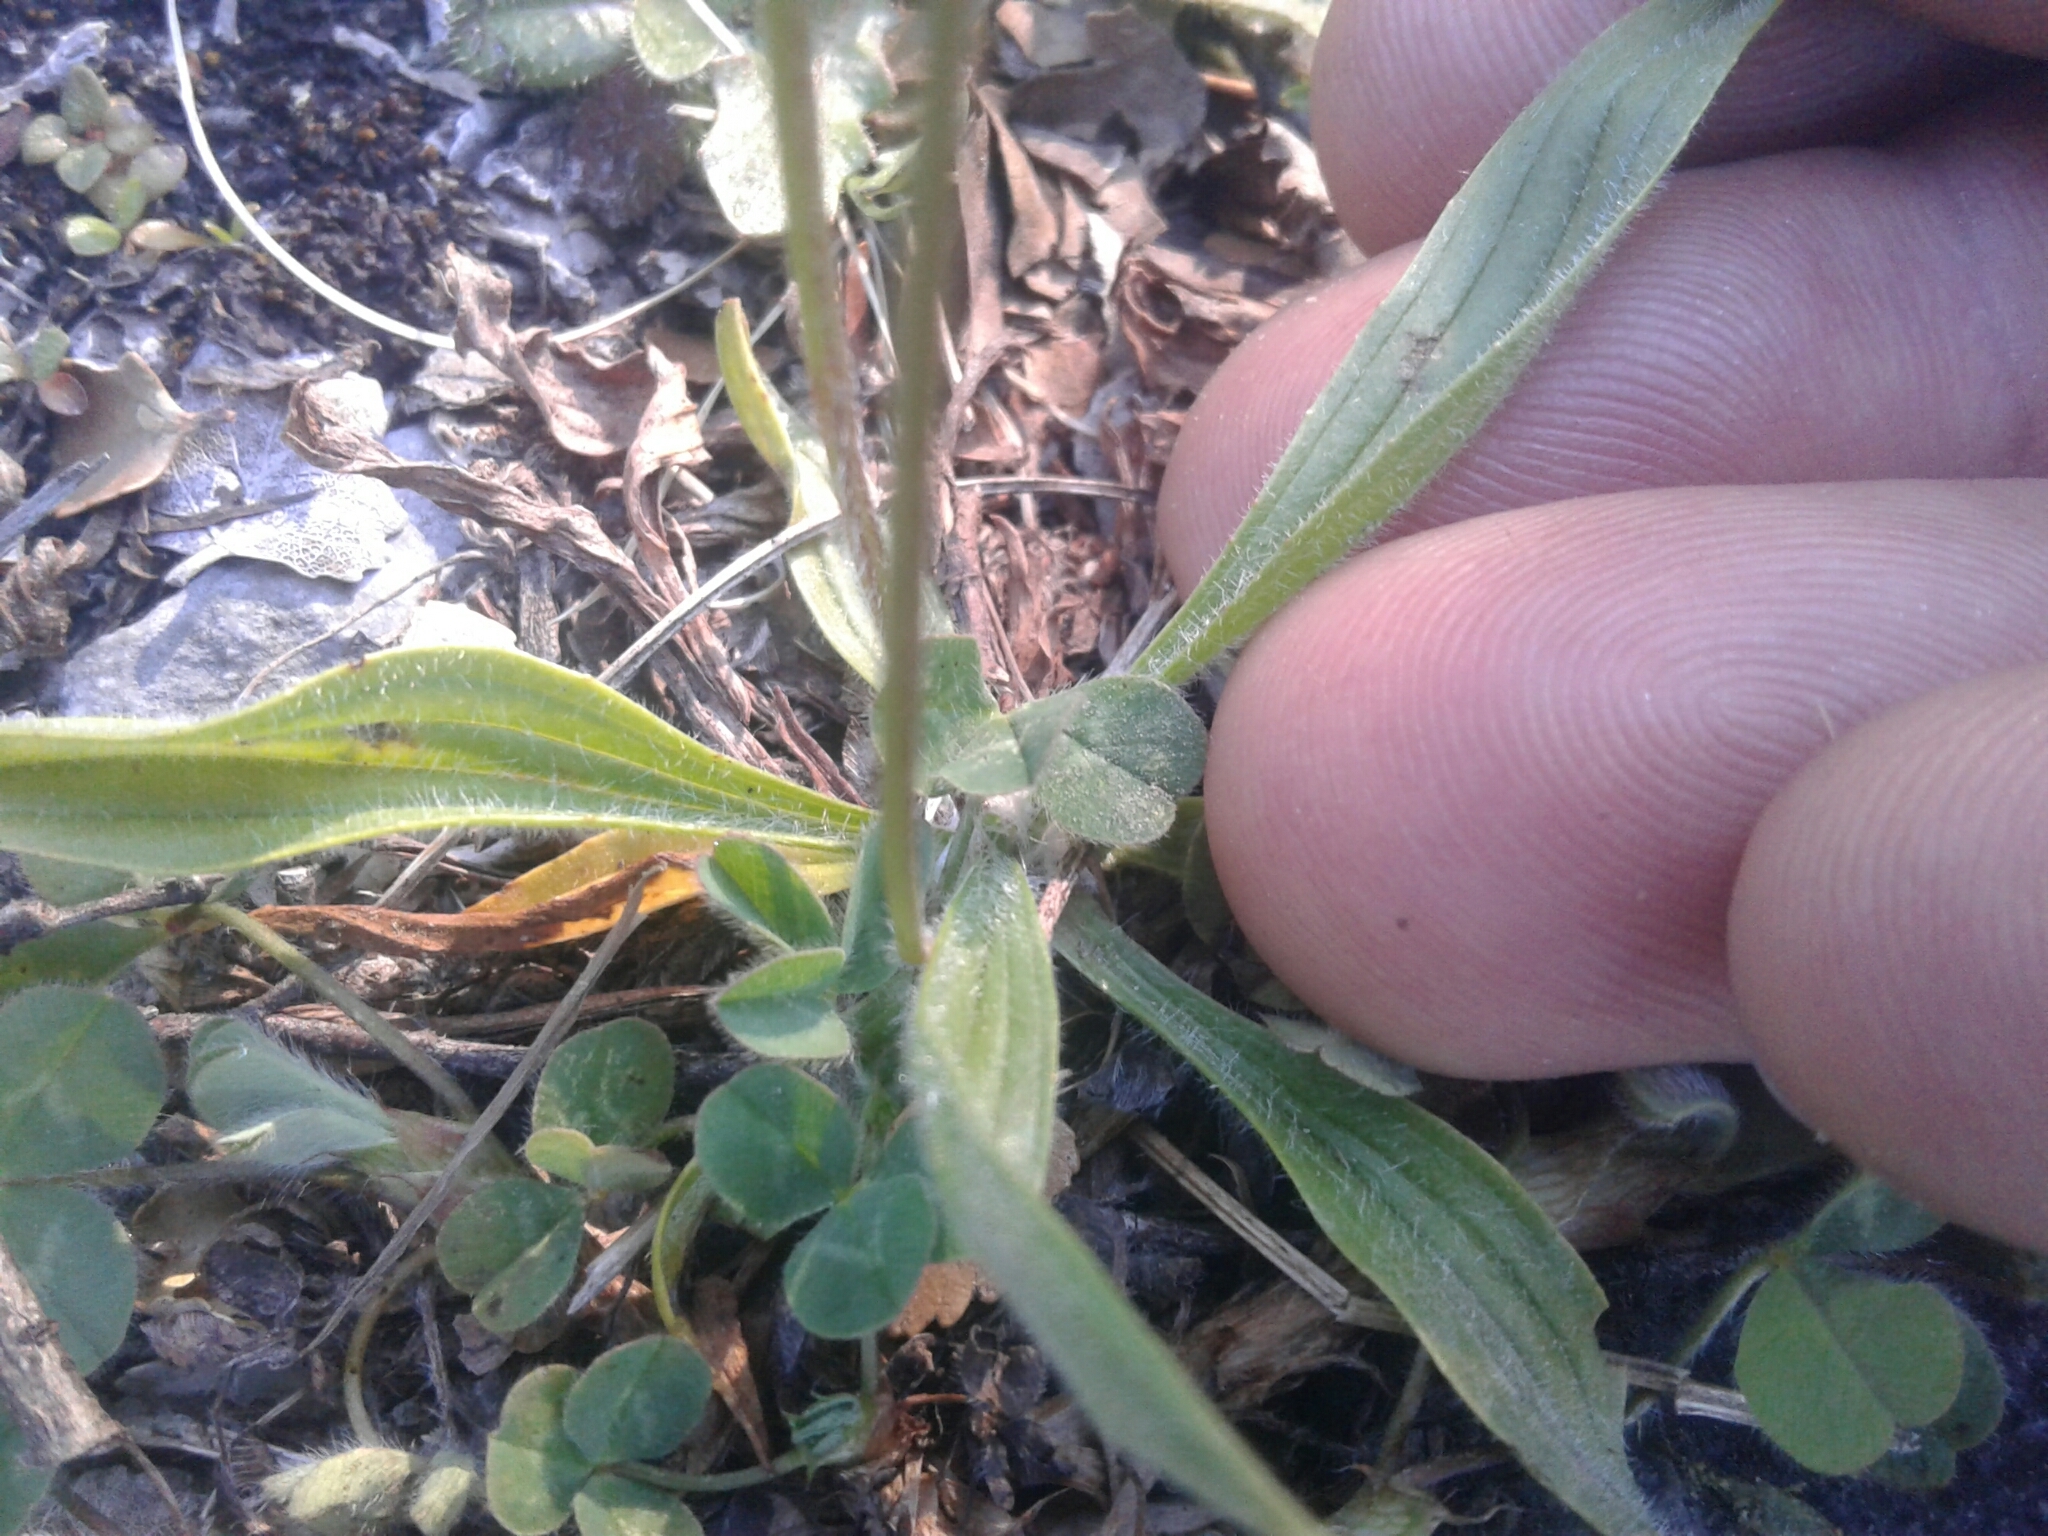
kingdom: Plantae
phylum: Tracheophyta
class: Magnoliopsida
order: Lamiales
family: Plantaginaceae
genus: Plantago
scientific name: Plantago lanceolata
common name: Ribwort plantain
